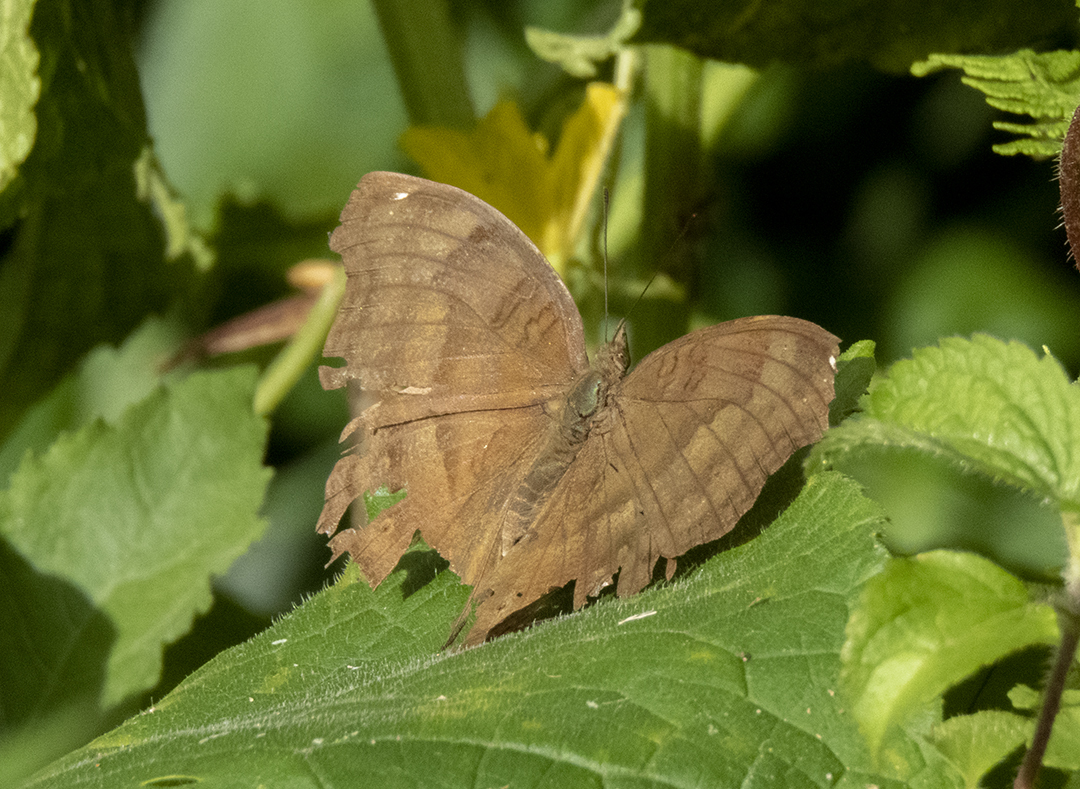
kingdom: Animalia
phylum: Arthropoda
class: Insecta
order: Lepidoptera
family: Nymphalidae
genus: Junonia
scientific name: Junonia iphita
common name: Chocolate pansy
